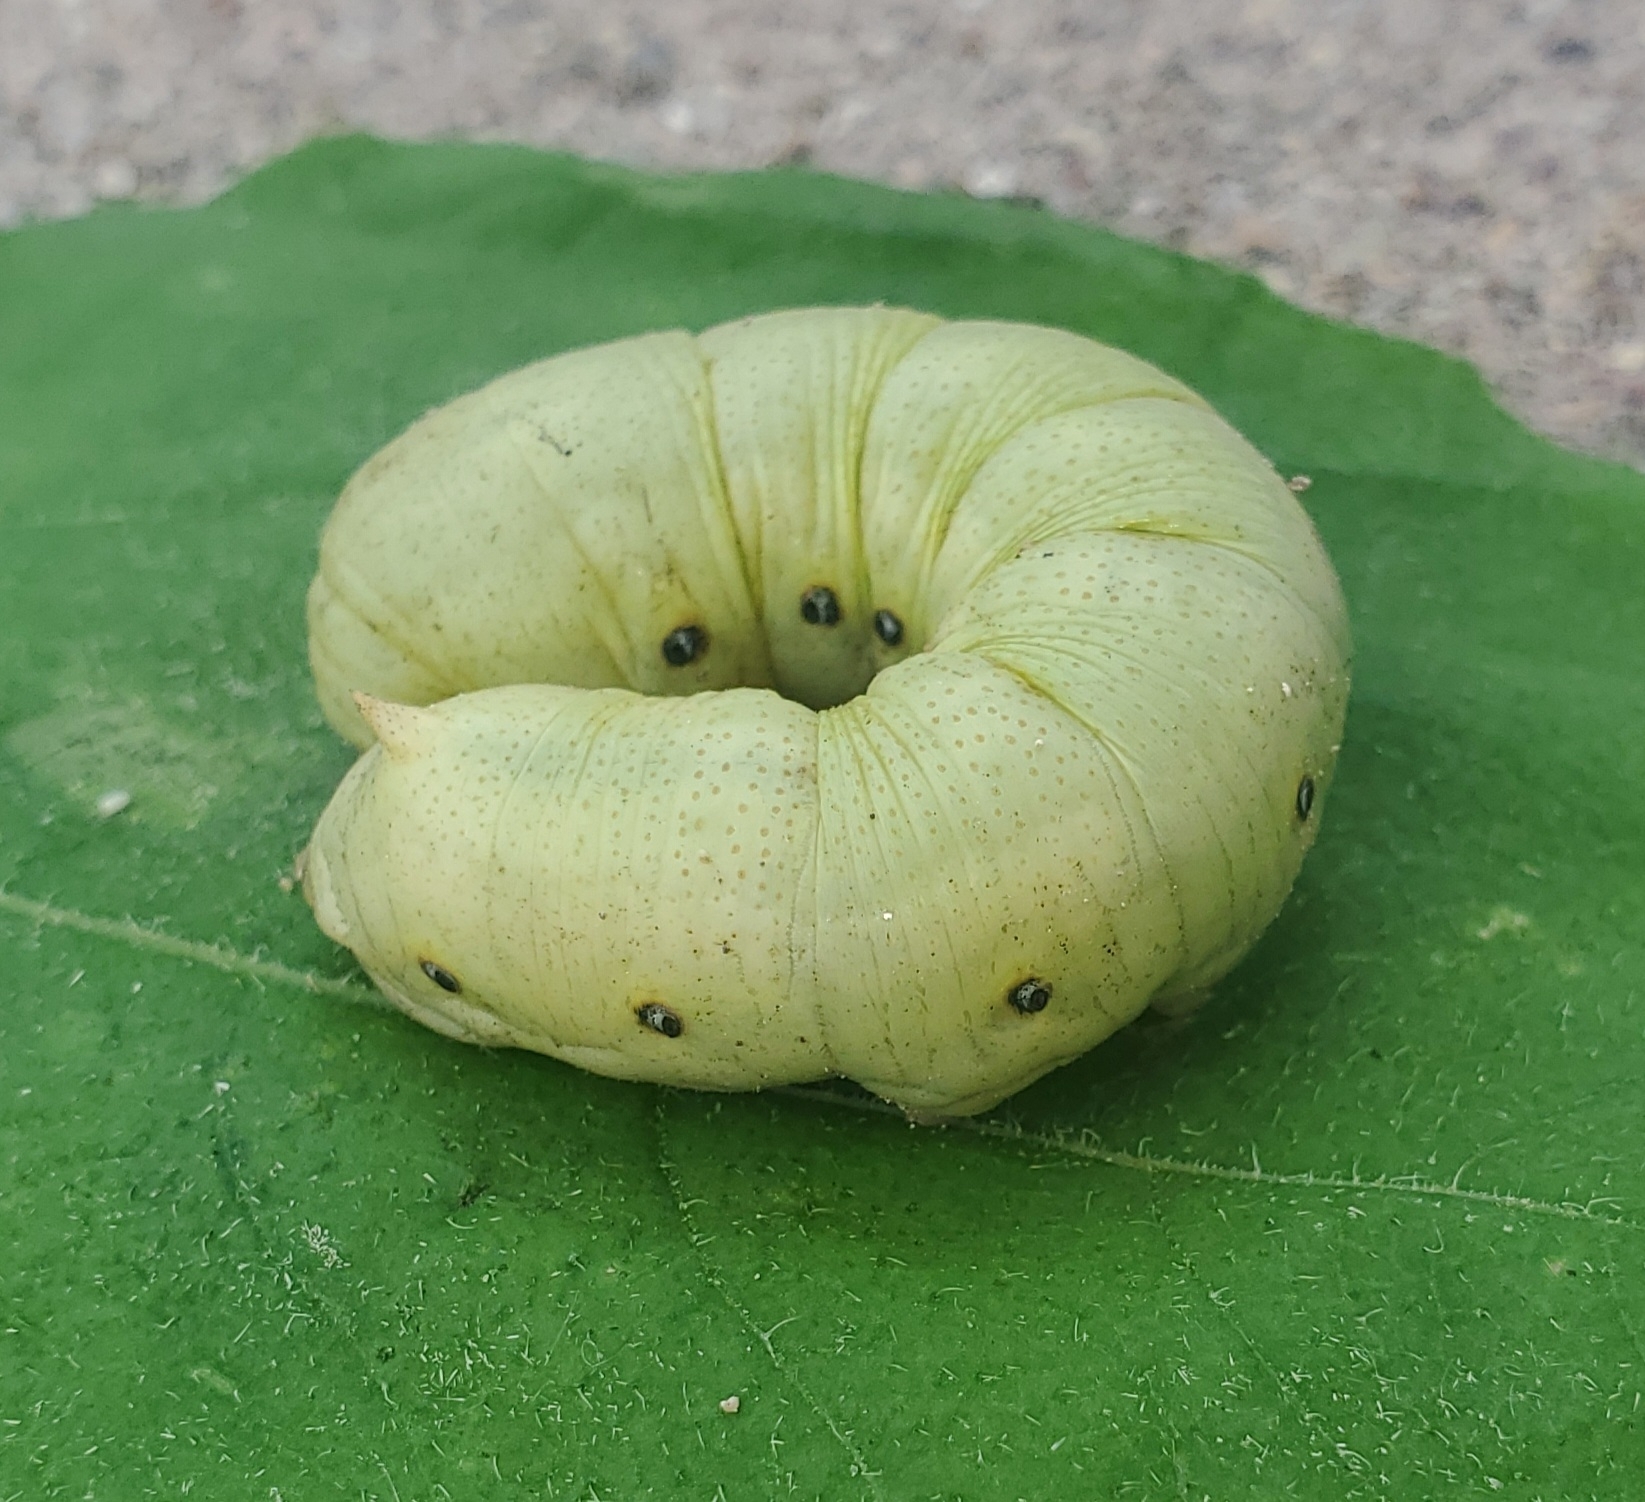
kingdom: Animalia
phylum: Arthropoda
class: Insecta
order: Lepidoptera
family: Sphingidae
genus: Proserpinus
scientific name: Proserpinus terlooii
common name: Terloo's sphinx
